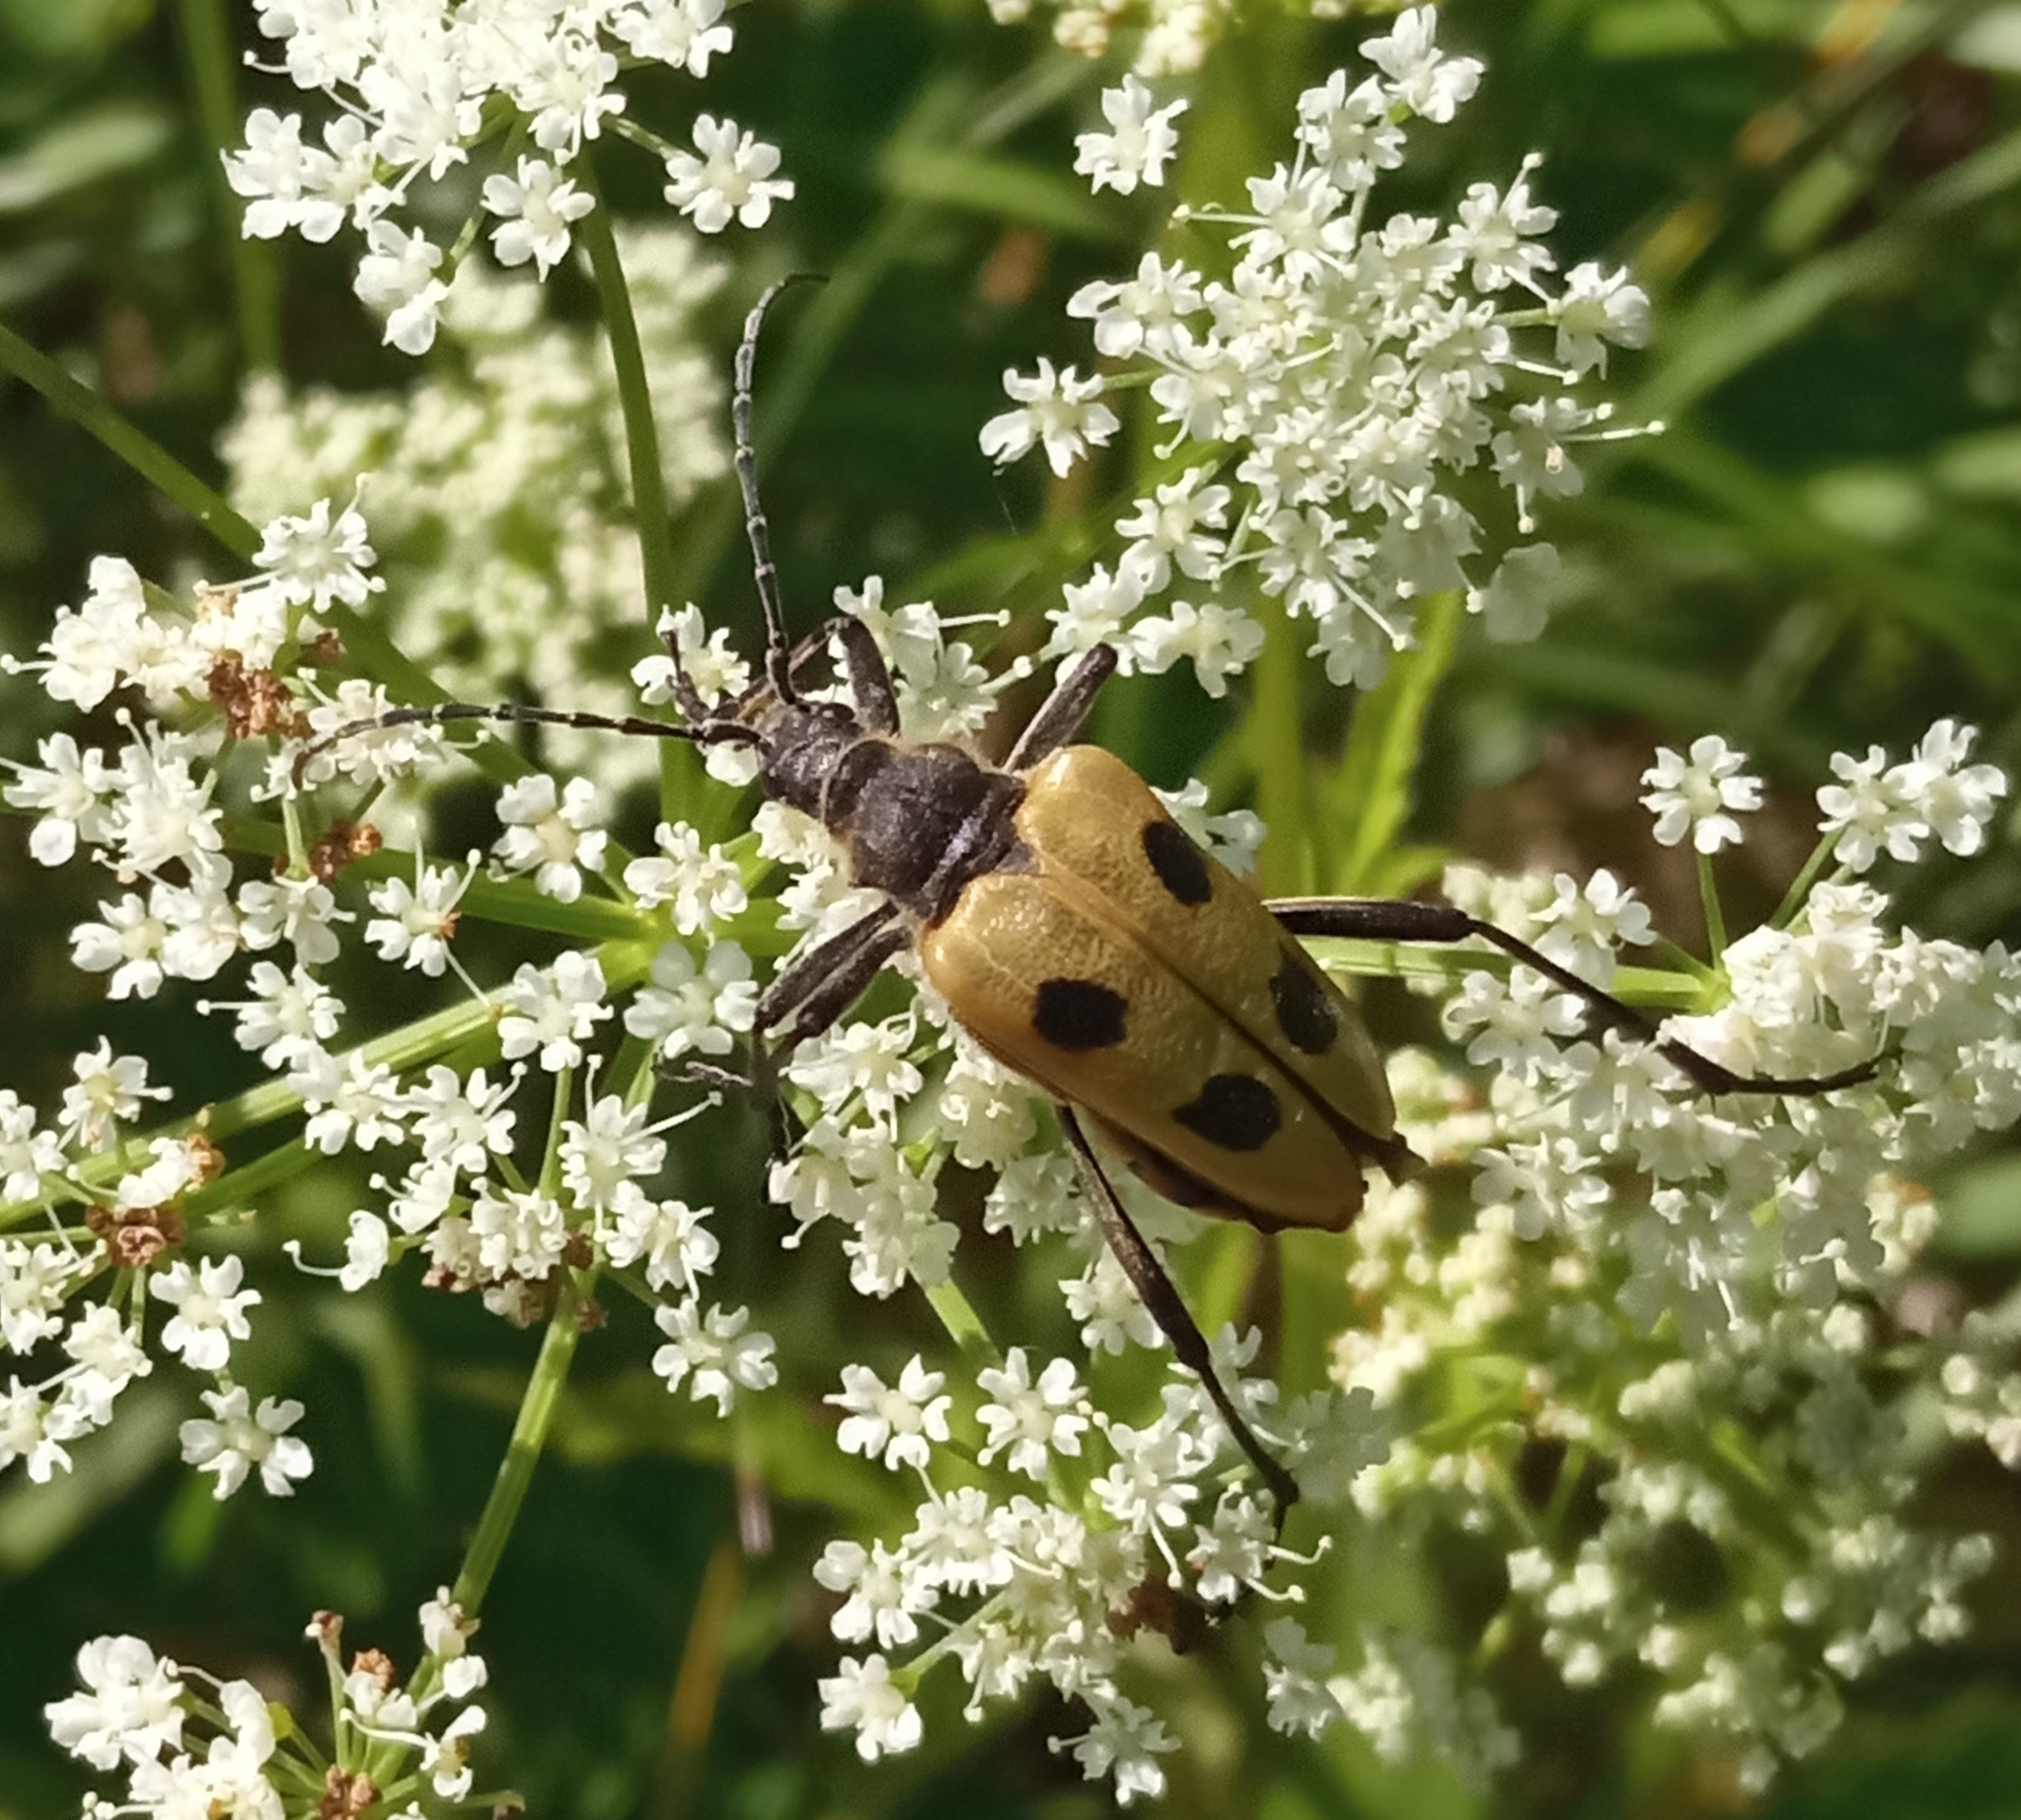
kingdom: Animalia
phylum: Arthropoda
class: Insecta
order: Coleoptera
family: Cerambycidae
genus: Pachyta
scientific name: Pachyta quadrimaculata
